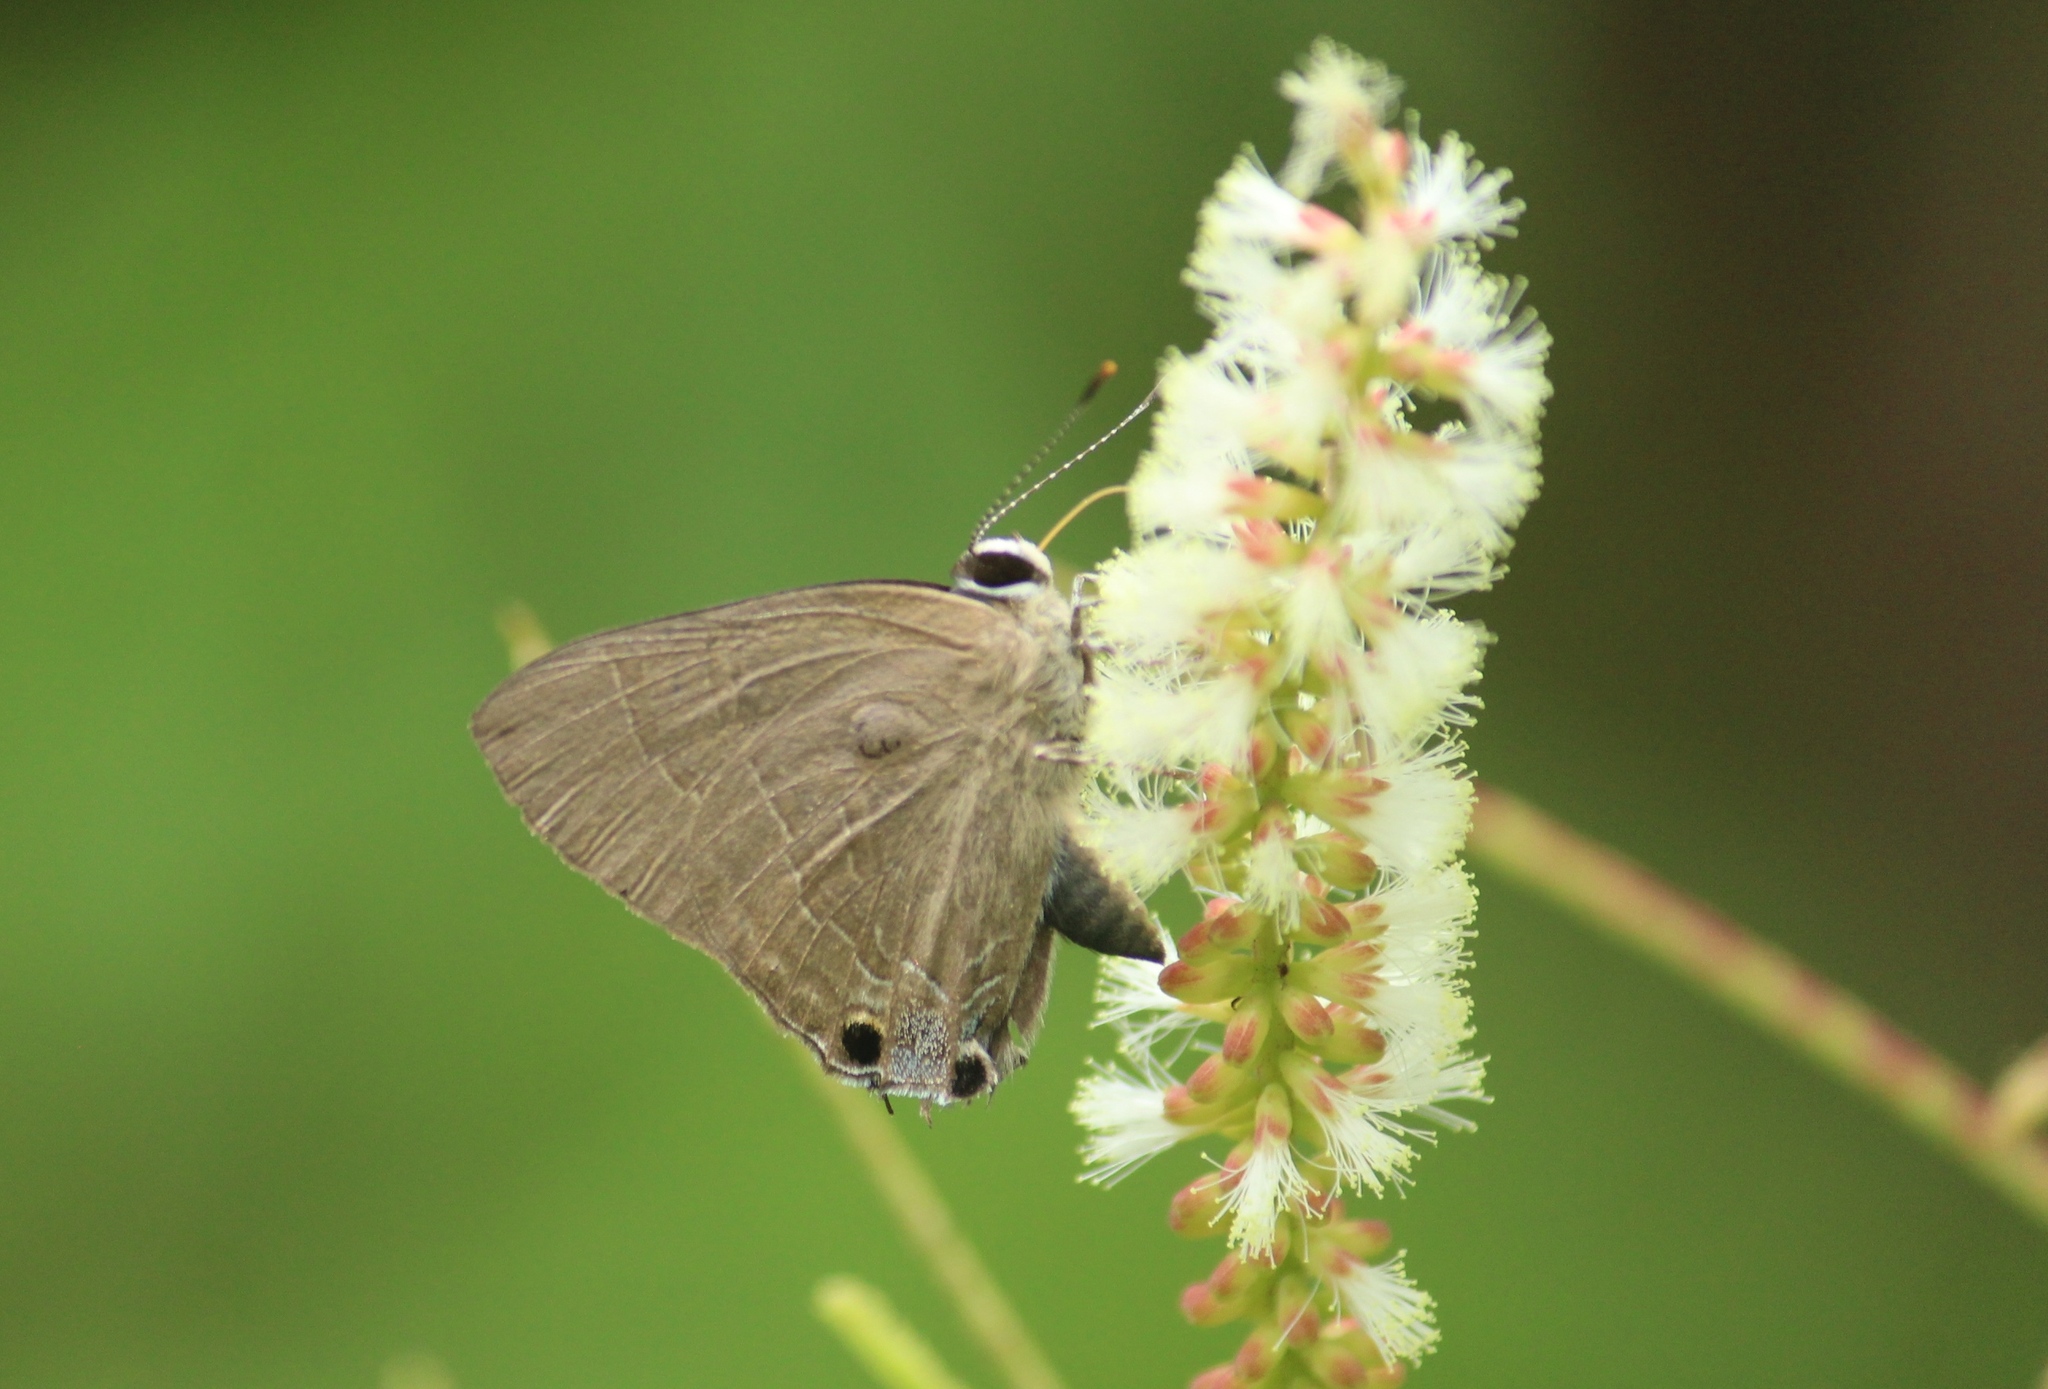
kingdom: Animalia
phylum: Arthropoda
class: Insecta
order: Lepidoptera
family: Lycaenidae
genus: Rapala
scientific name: Rapala manea
